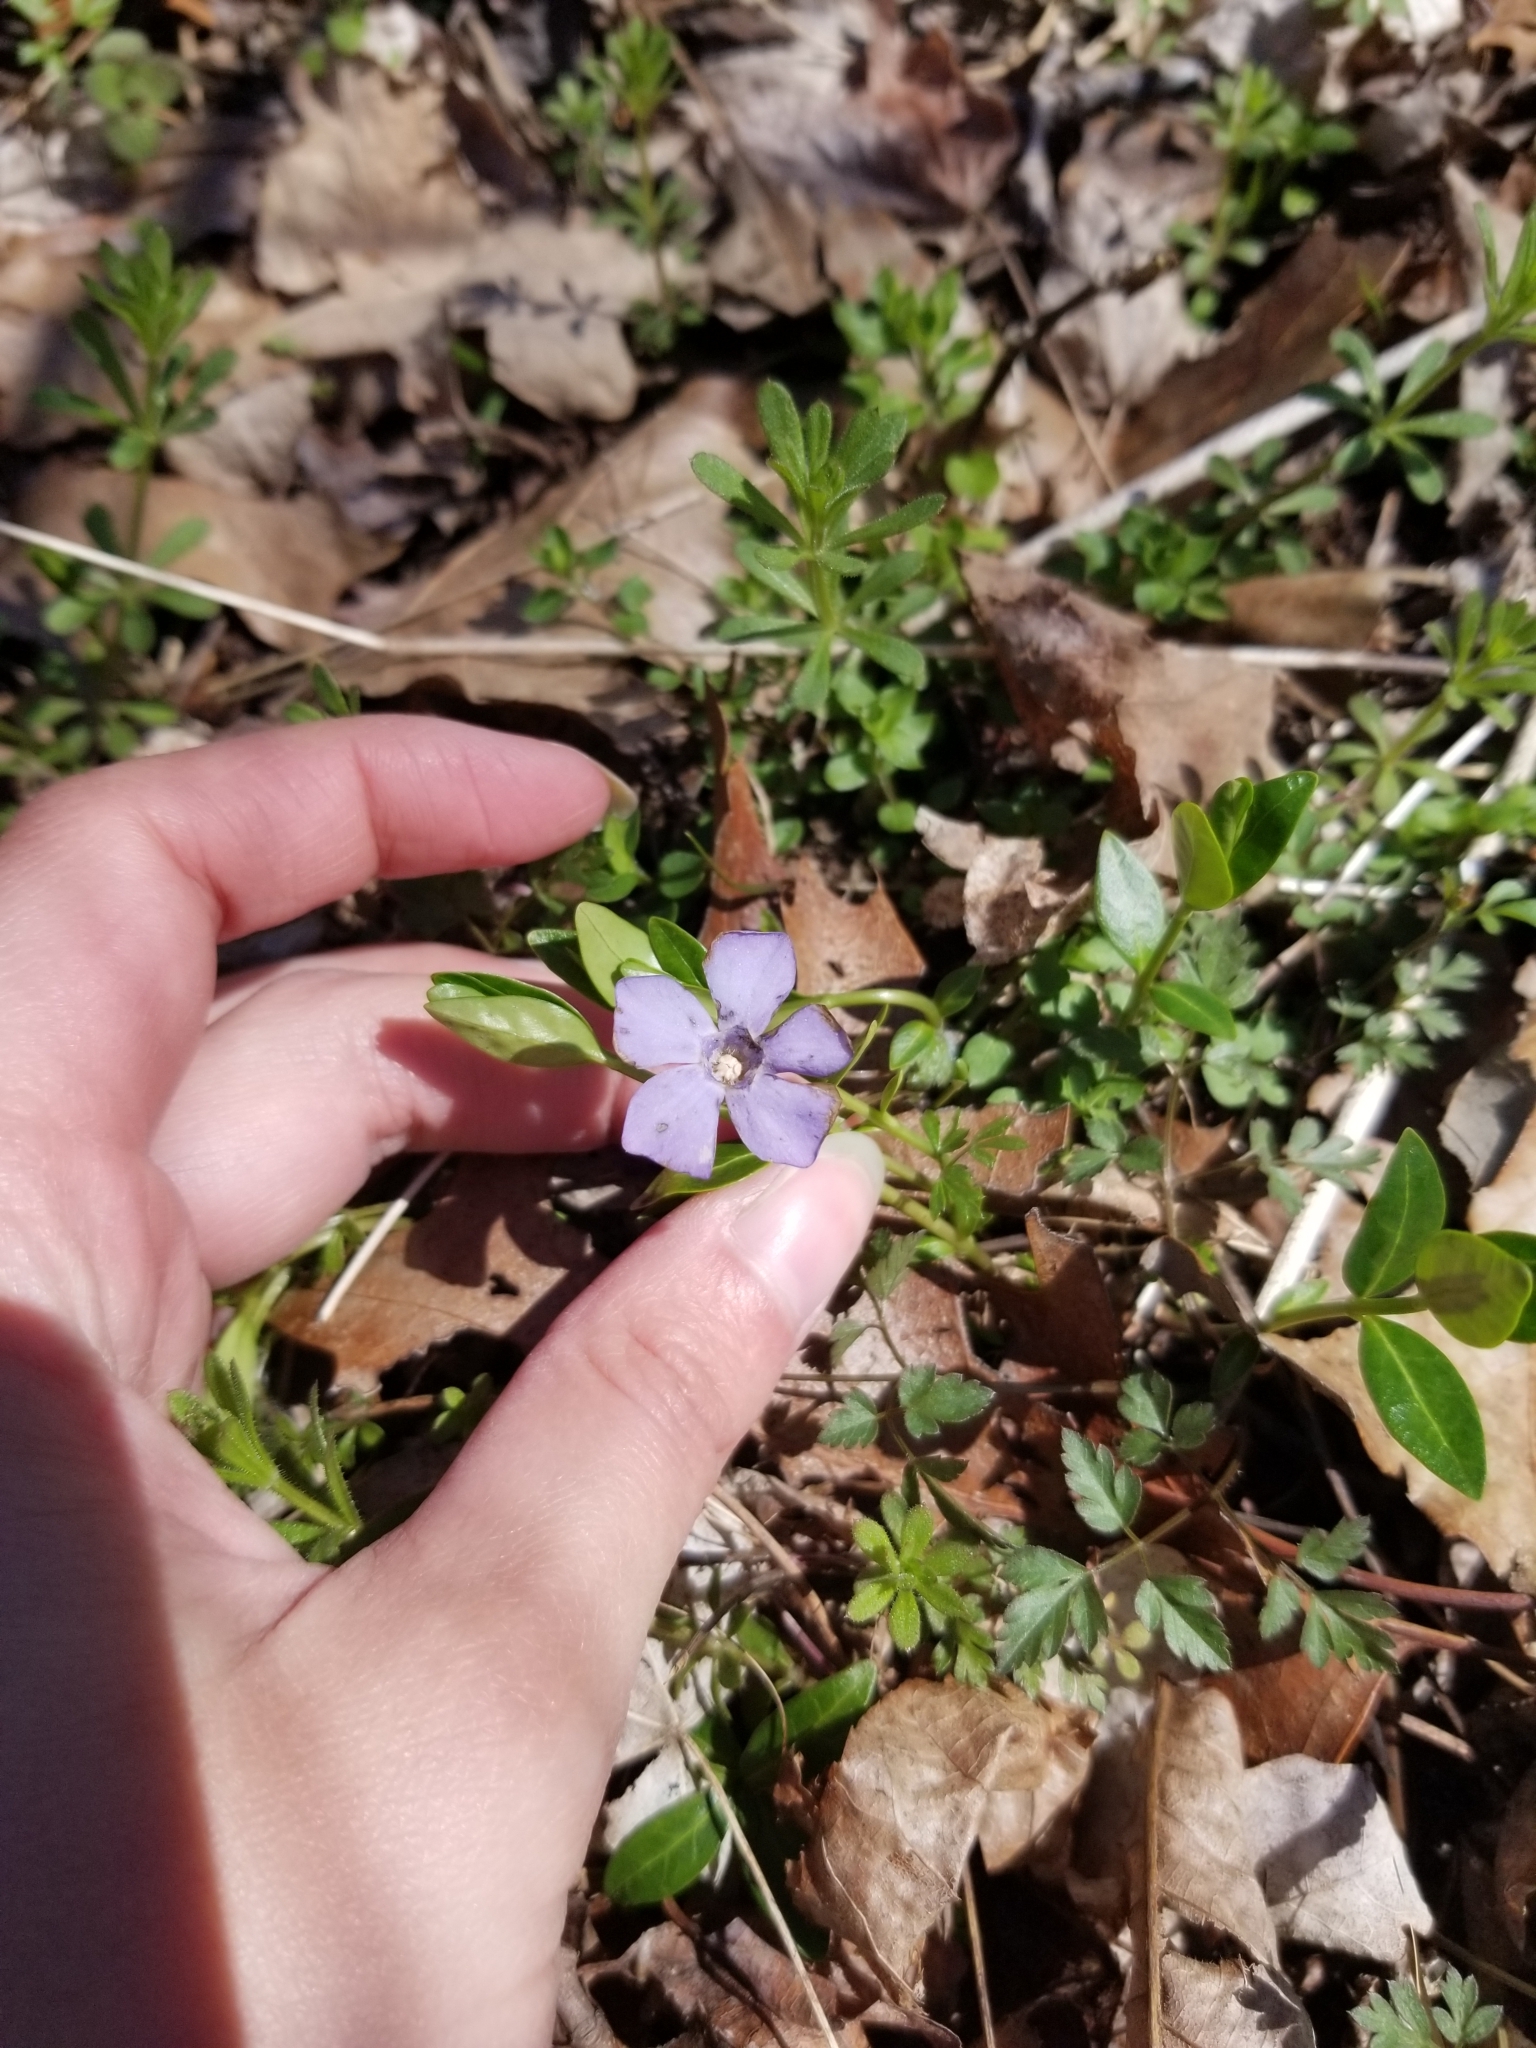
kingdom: Plantae
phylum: Tracheophyta
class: Magnoliopsida
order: Gentianales
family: Apocynaceae
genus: Vinca
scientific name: Vinca minor
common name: Lesser periwinkle
